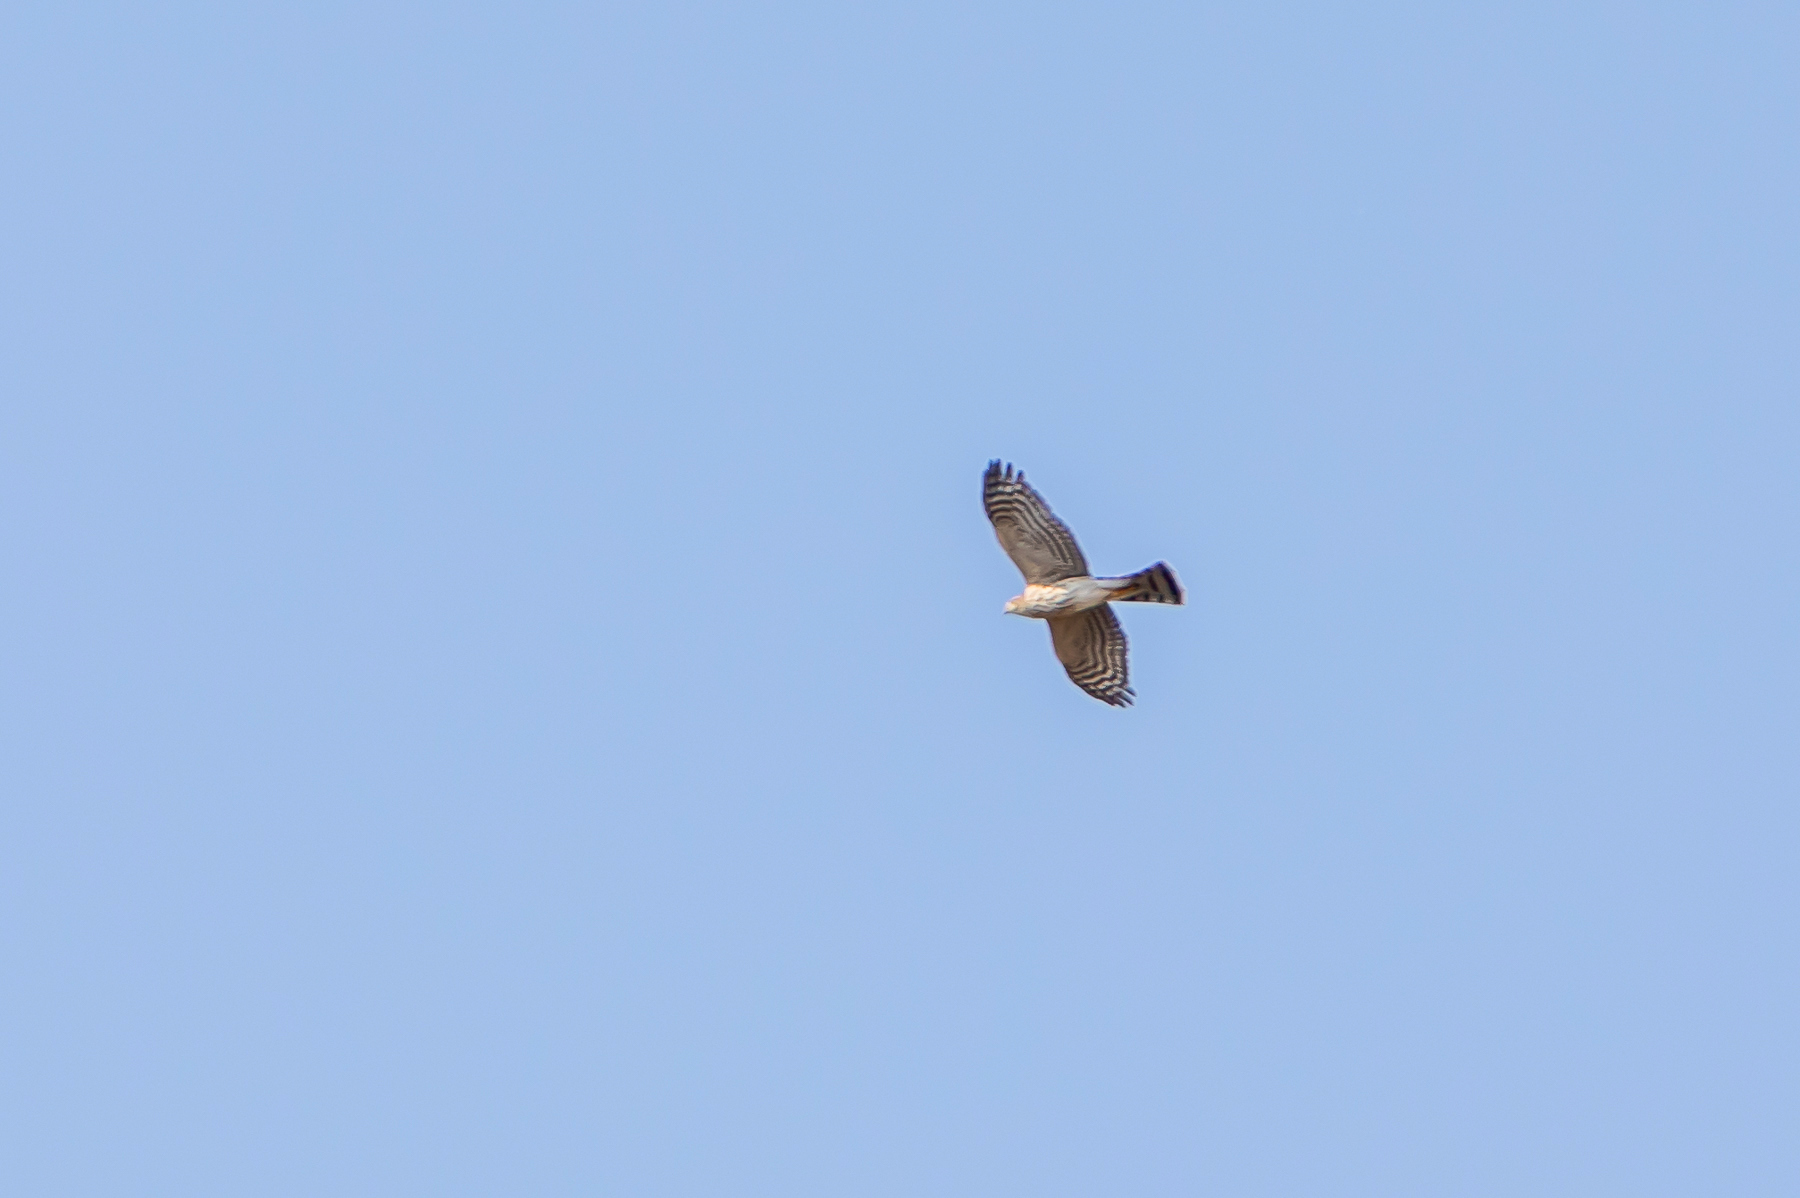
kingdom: Animalia
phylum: Chordata
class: Aves
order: Accipitriformes
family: Accipitridae
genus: Accipiter
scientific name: Accipiter cooperii
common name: Cooper's hawk
